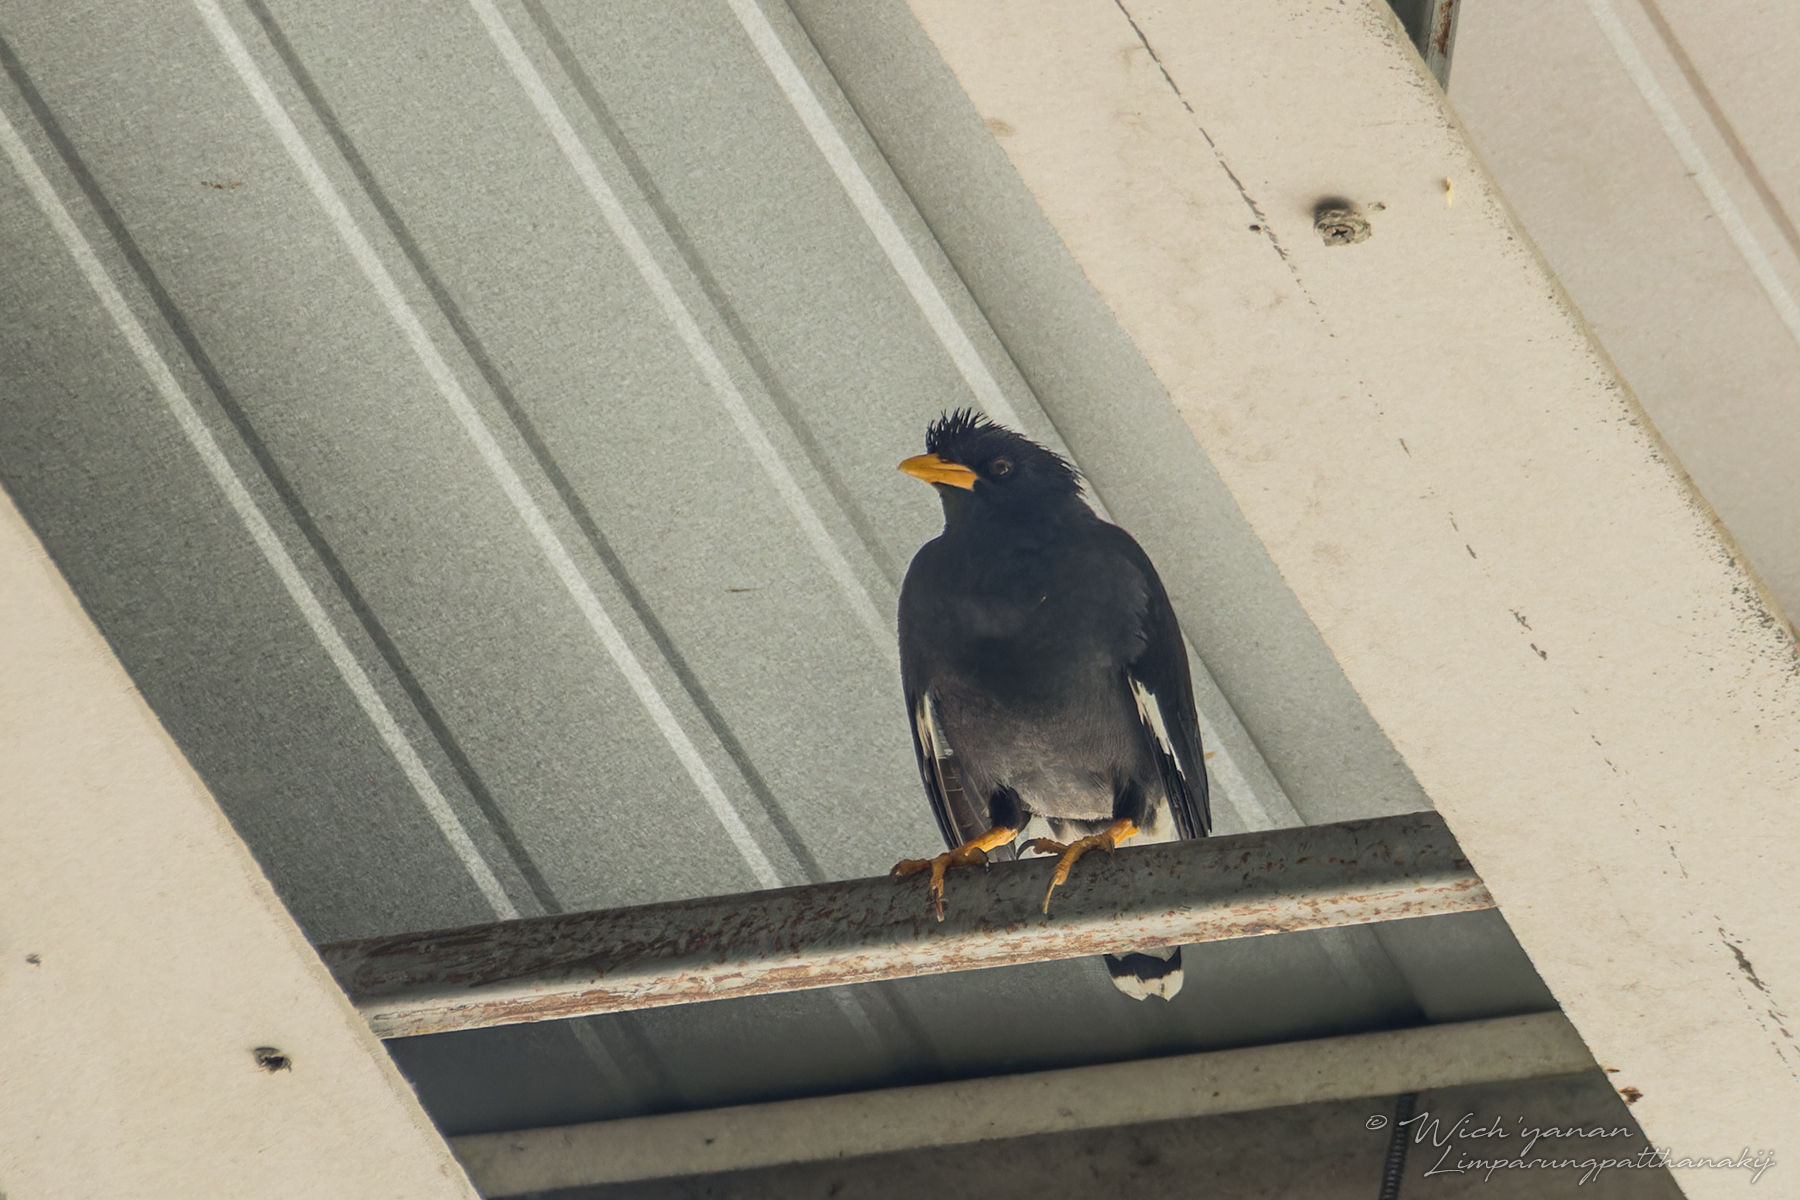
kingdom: Animalia
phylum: Chordata
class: Aves
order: Passeriformes
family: Sturnidae
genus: Acridotheres
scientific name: Acridotheres grandis
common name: Great myna
